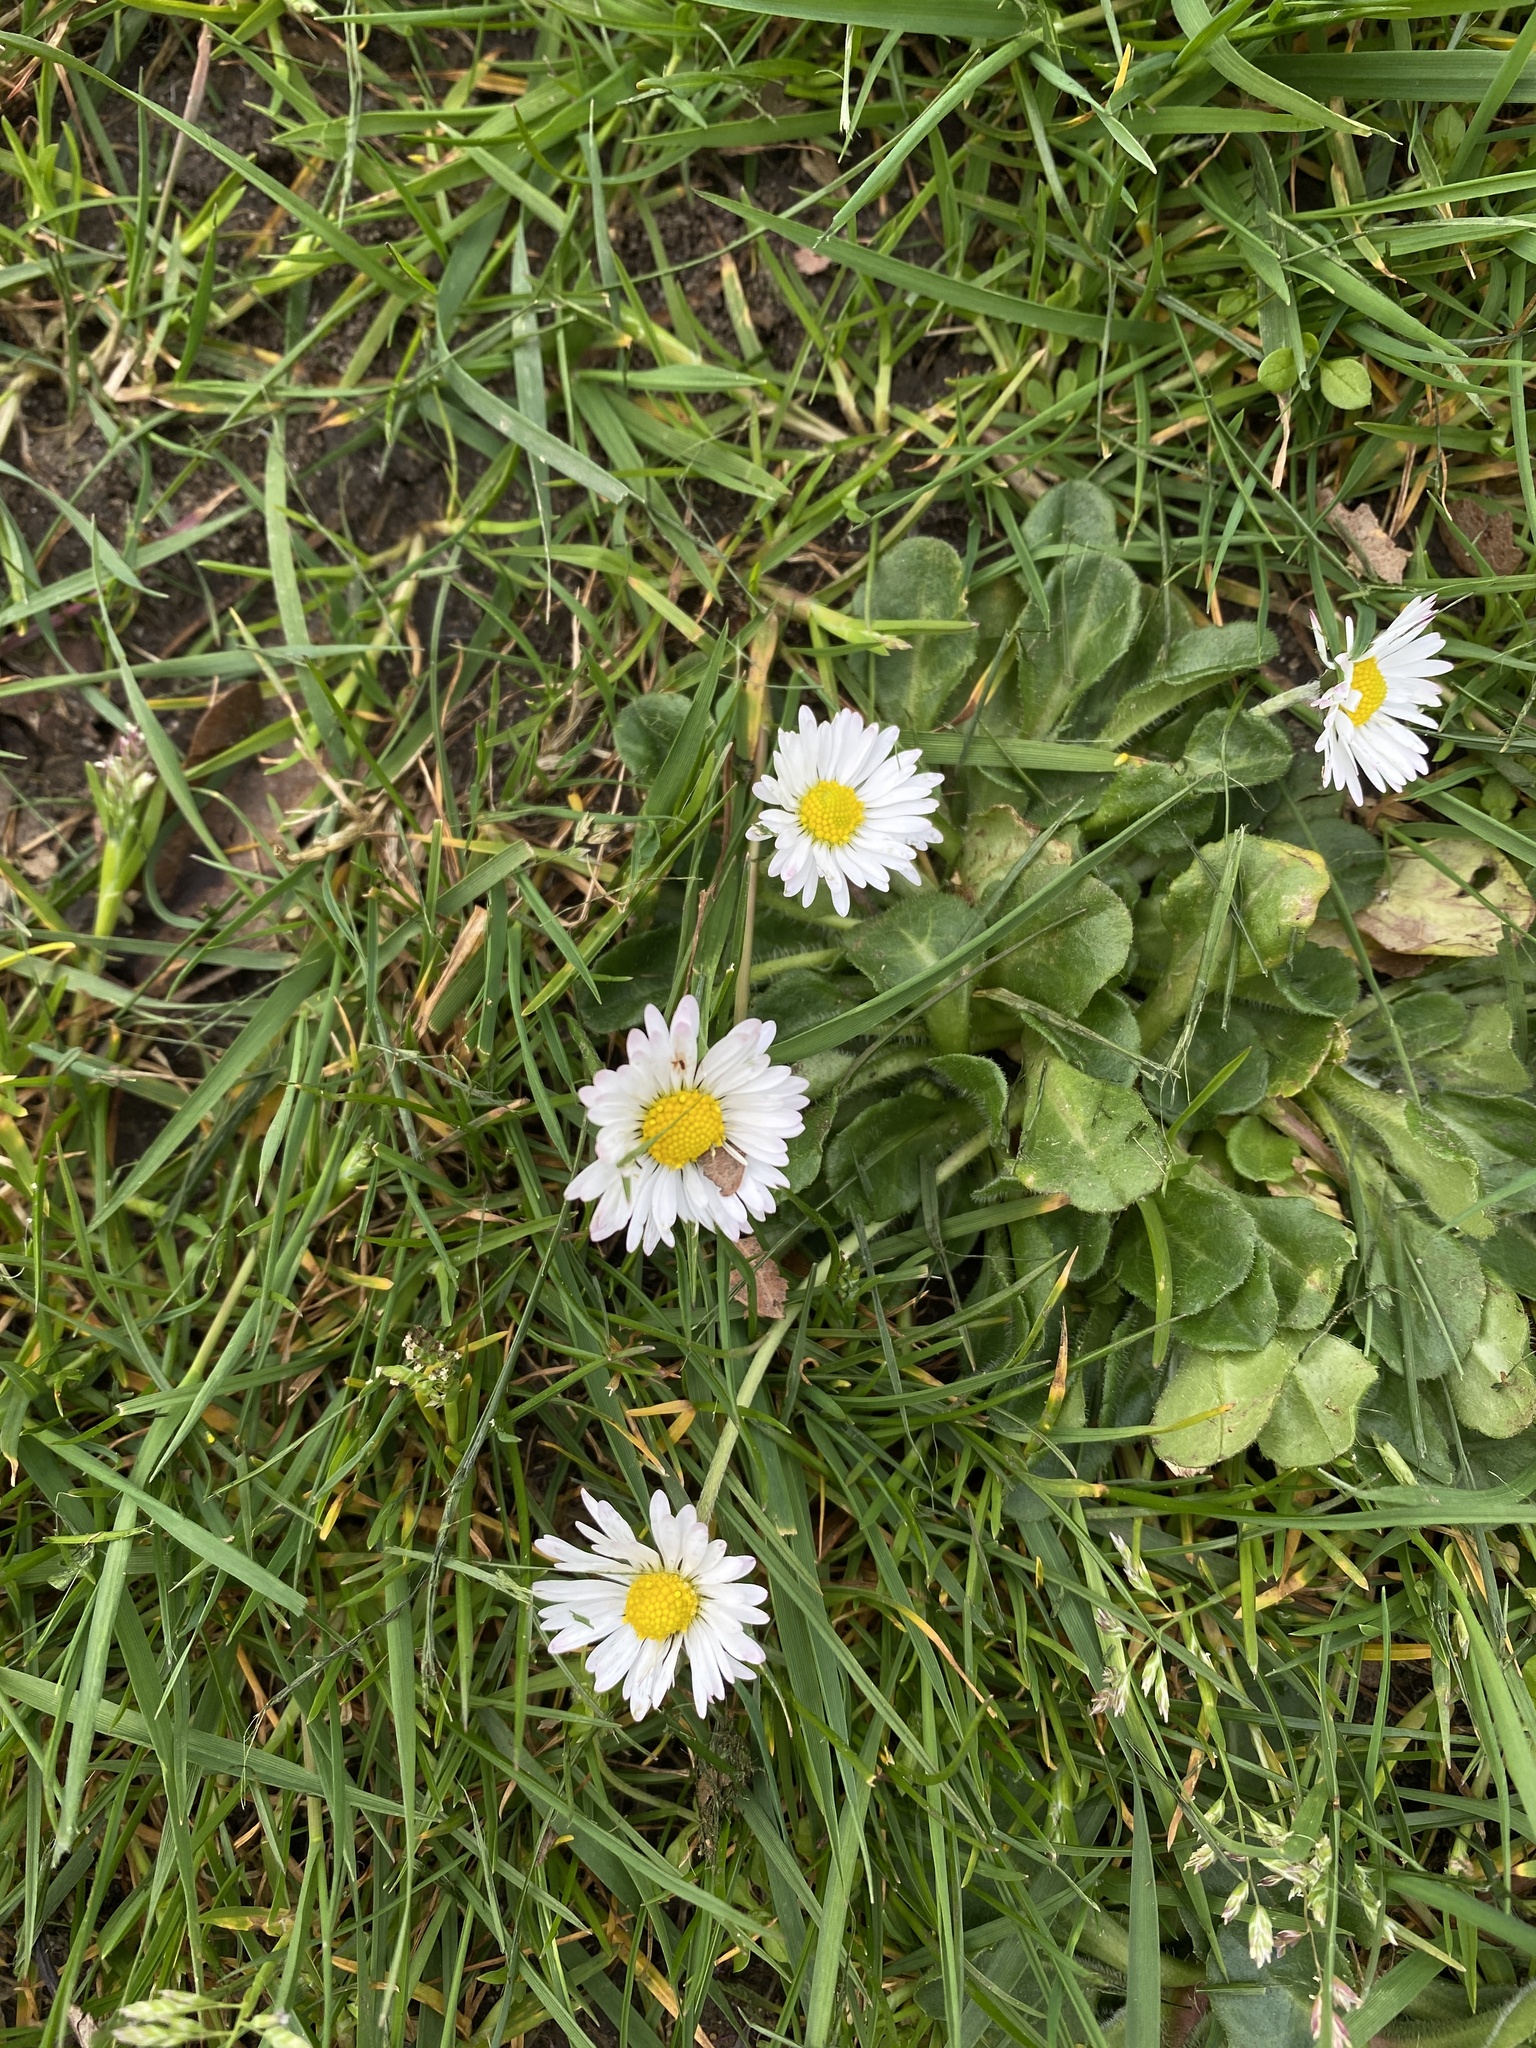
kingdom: Plantae
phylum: Tracheophyta
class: Magnoliopsida
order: Asterales
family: Asteraceae
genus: Bellis
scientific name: Bellis perennis
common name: Lawndaisy
